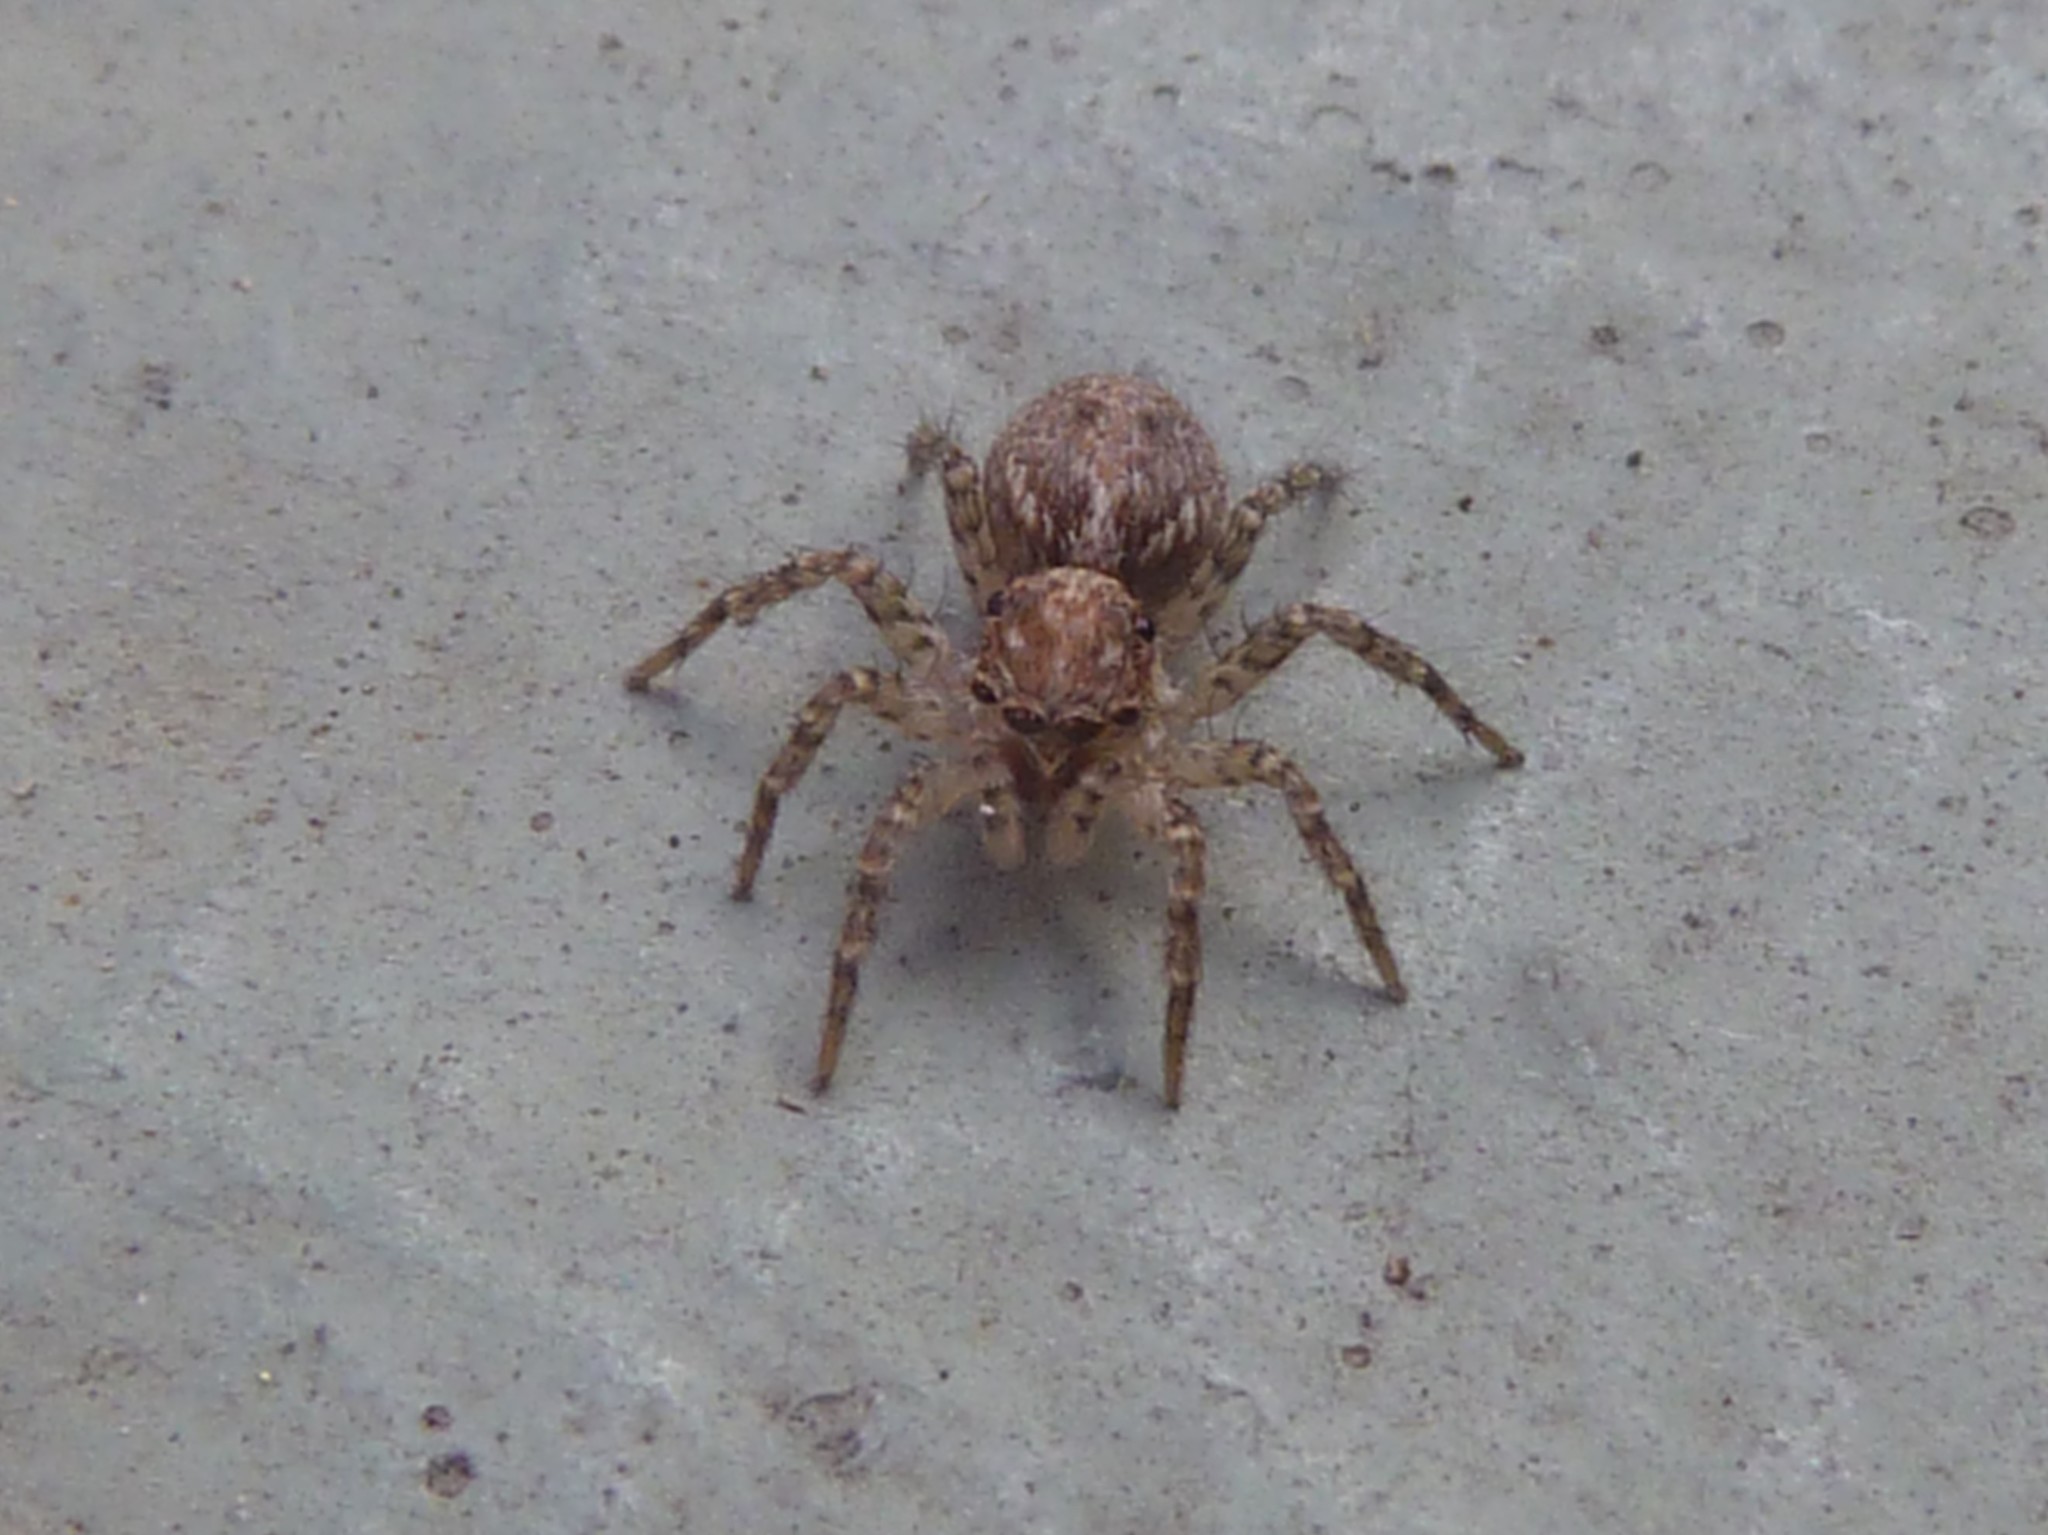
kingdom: Animalia
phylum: Arthropoda
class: Arachnida
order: Araneae
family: Salticidae
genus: Saitis
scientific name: Saitis variegatus
